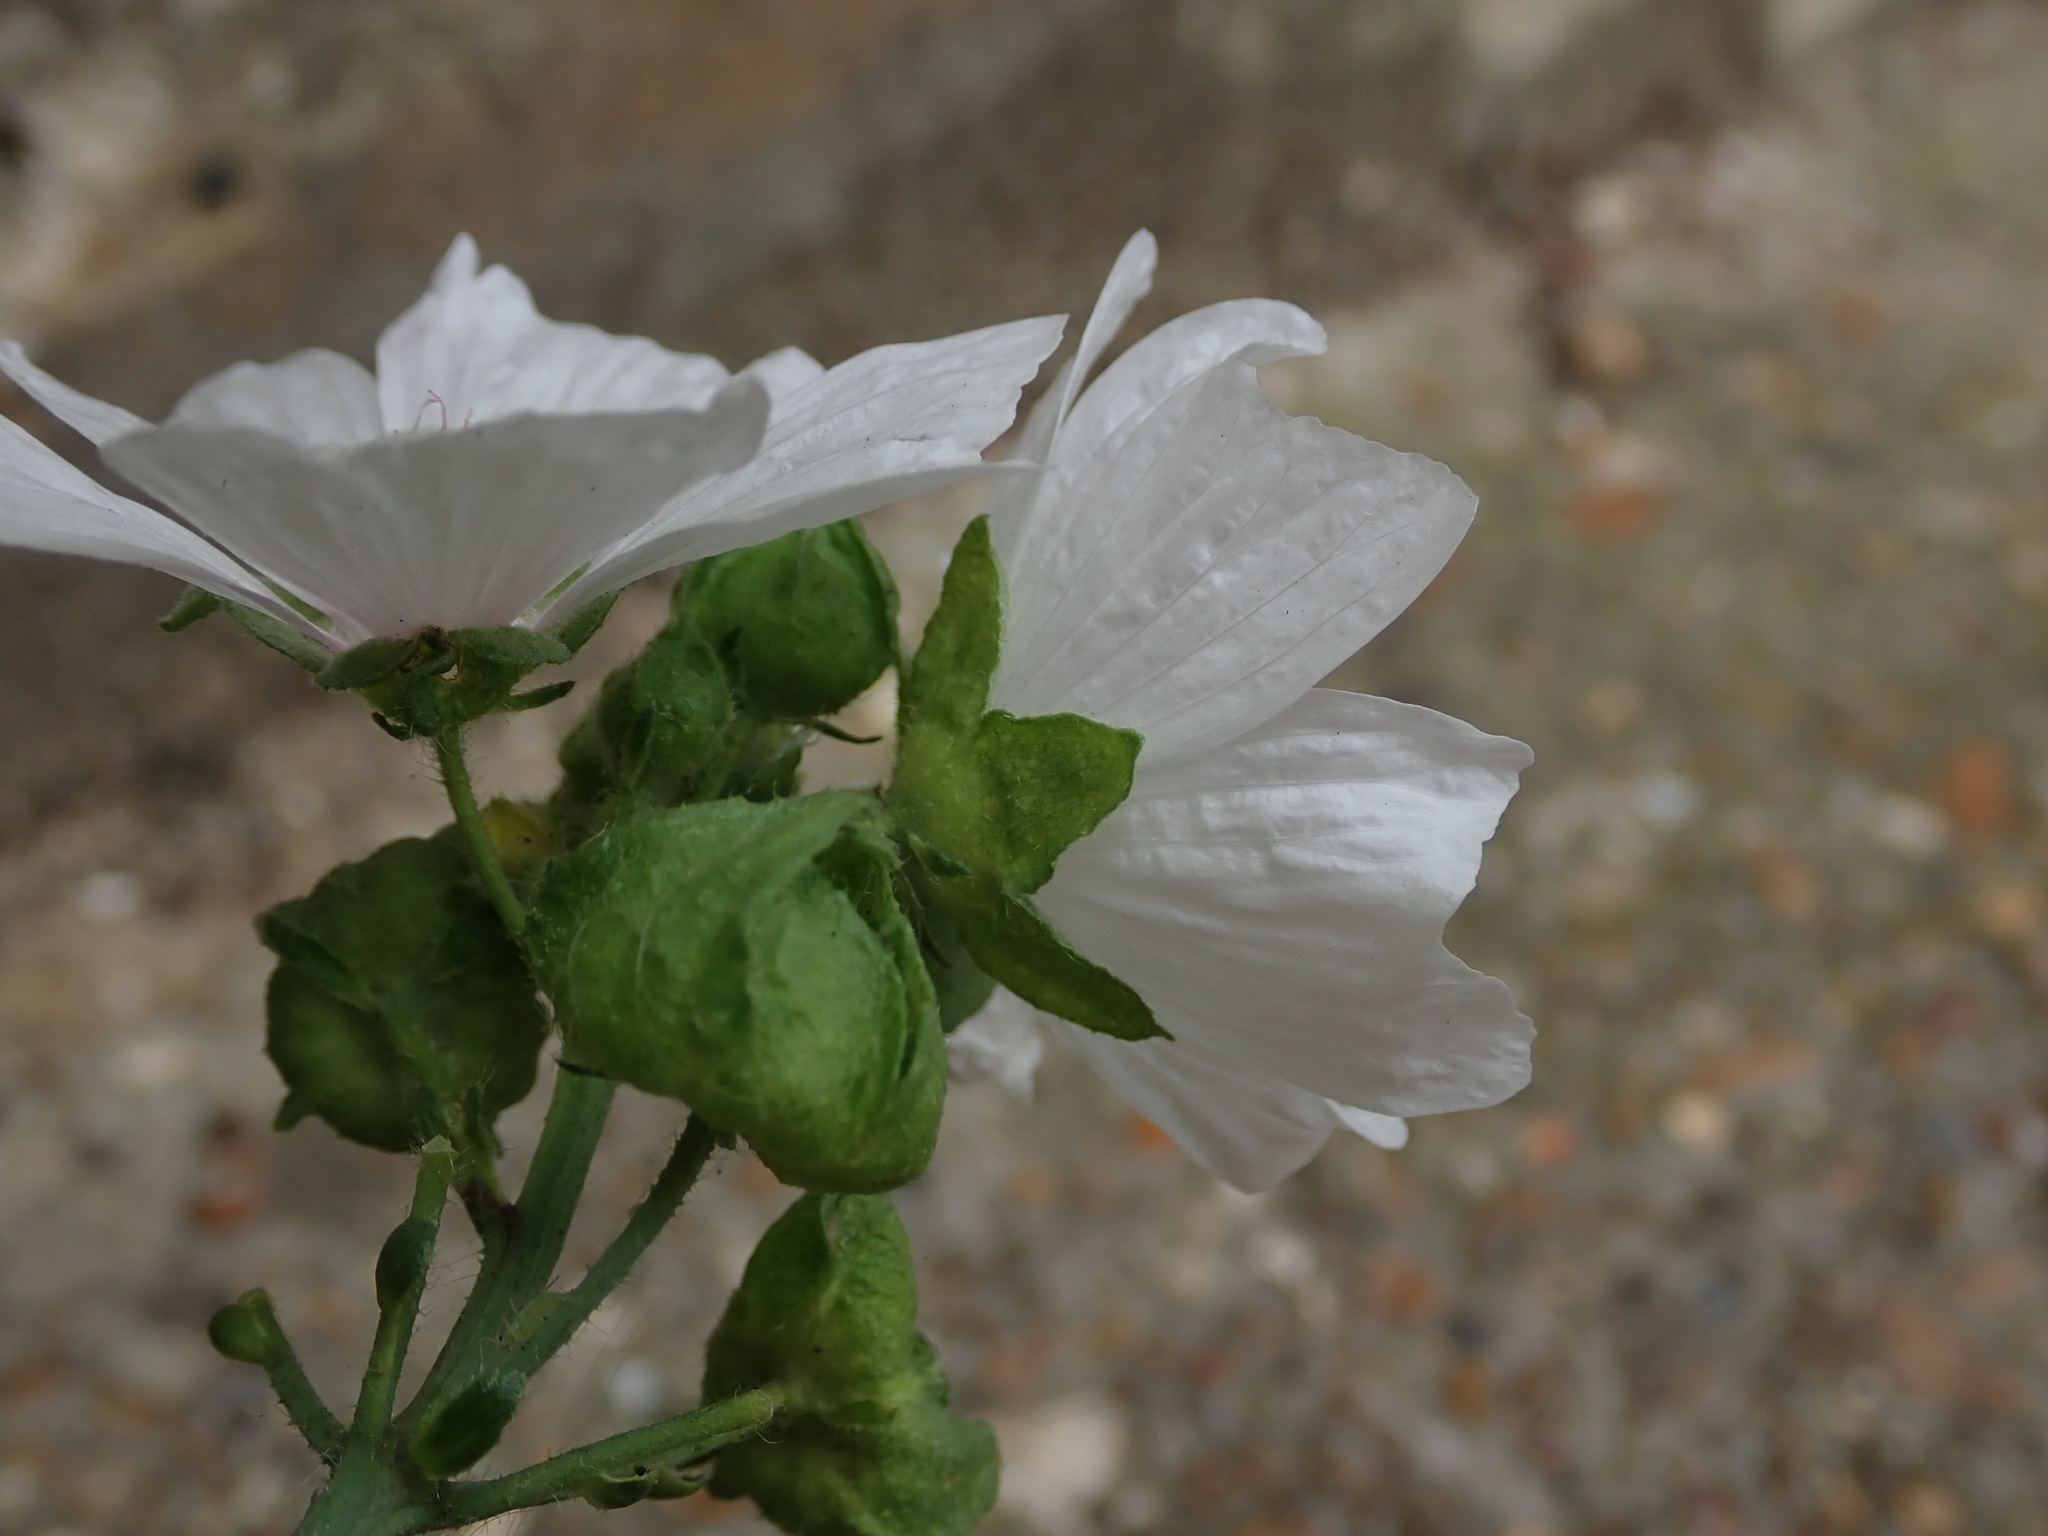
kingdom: Plantae
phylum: Tracheophyta
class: Magnoliopsida
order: Malvales
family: Malvaceae
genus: Malva
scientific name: Malva moschata
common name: Musk mallow
